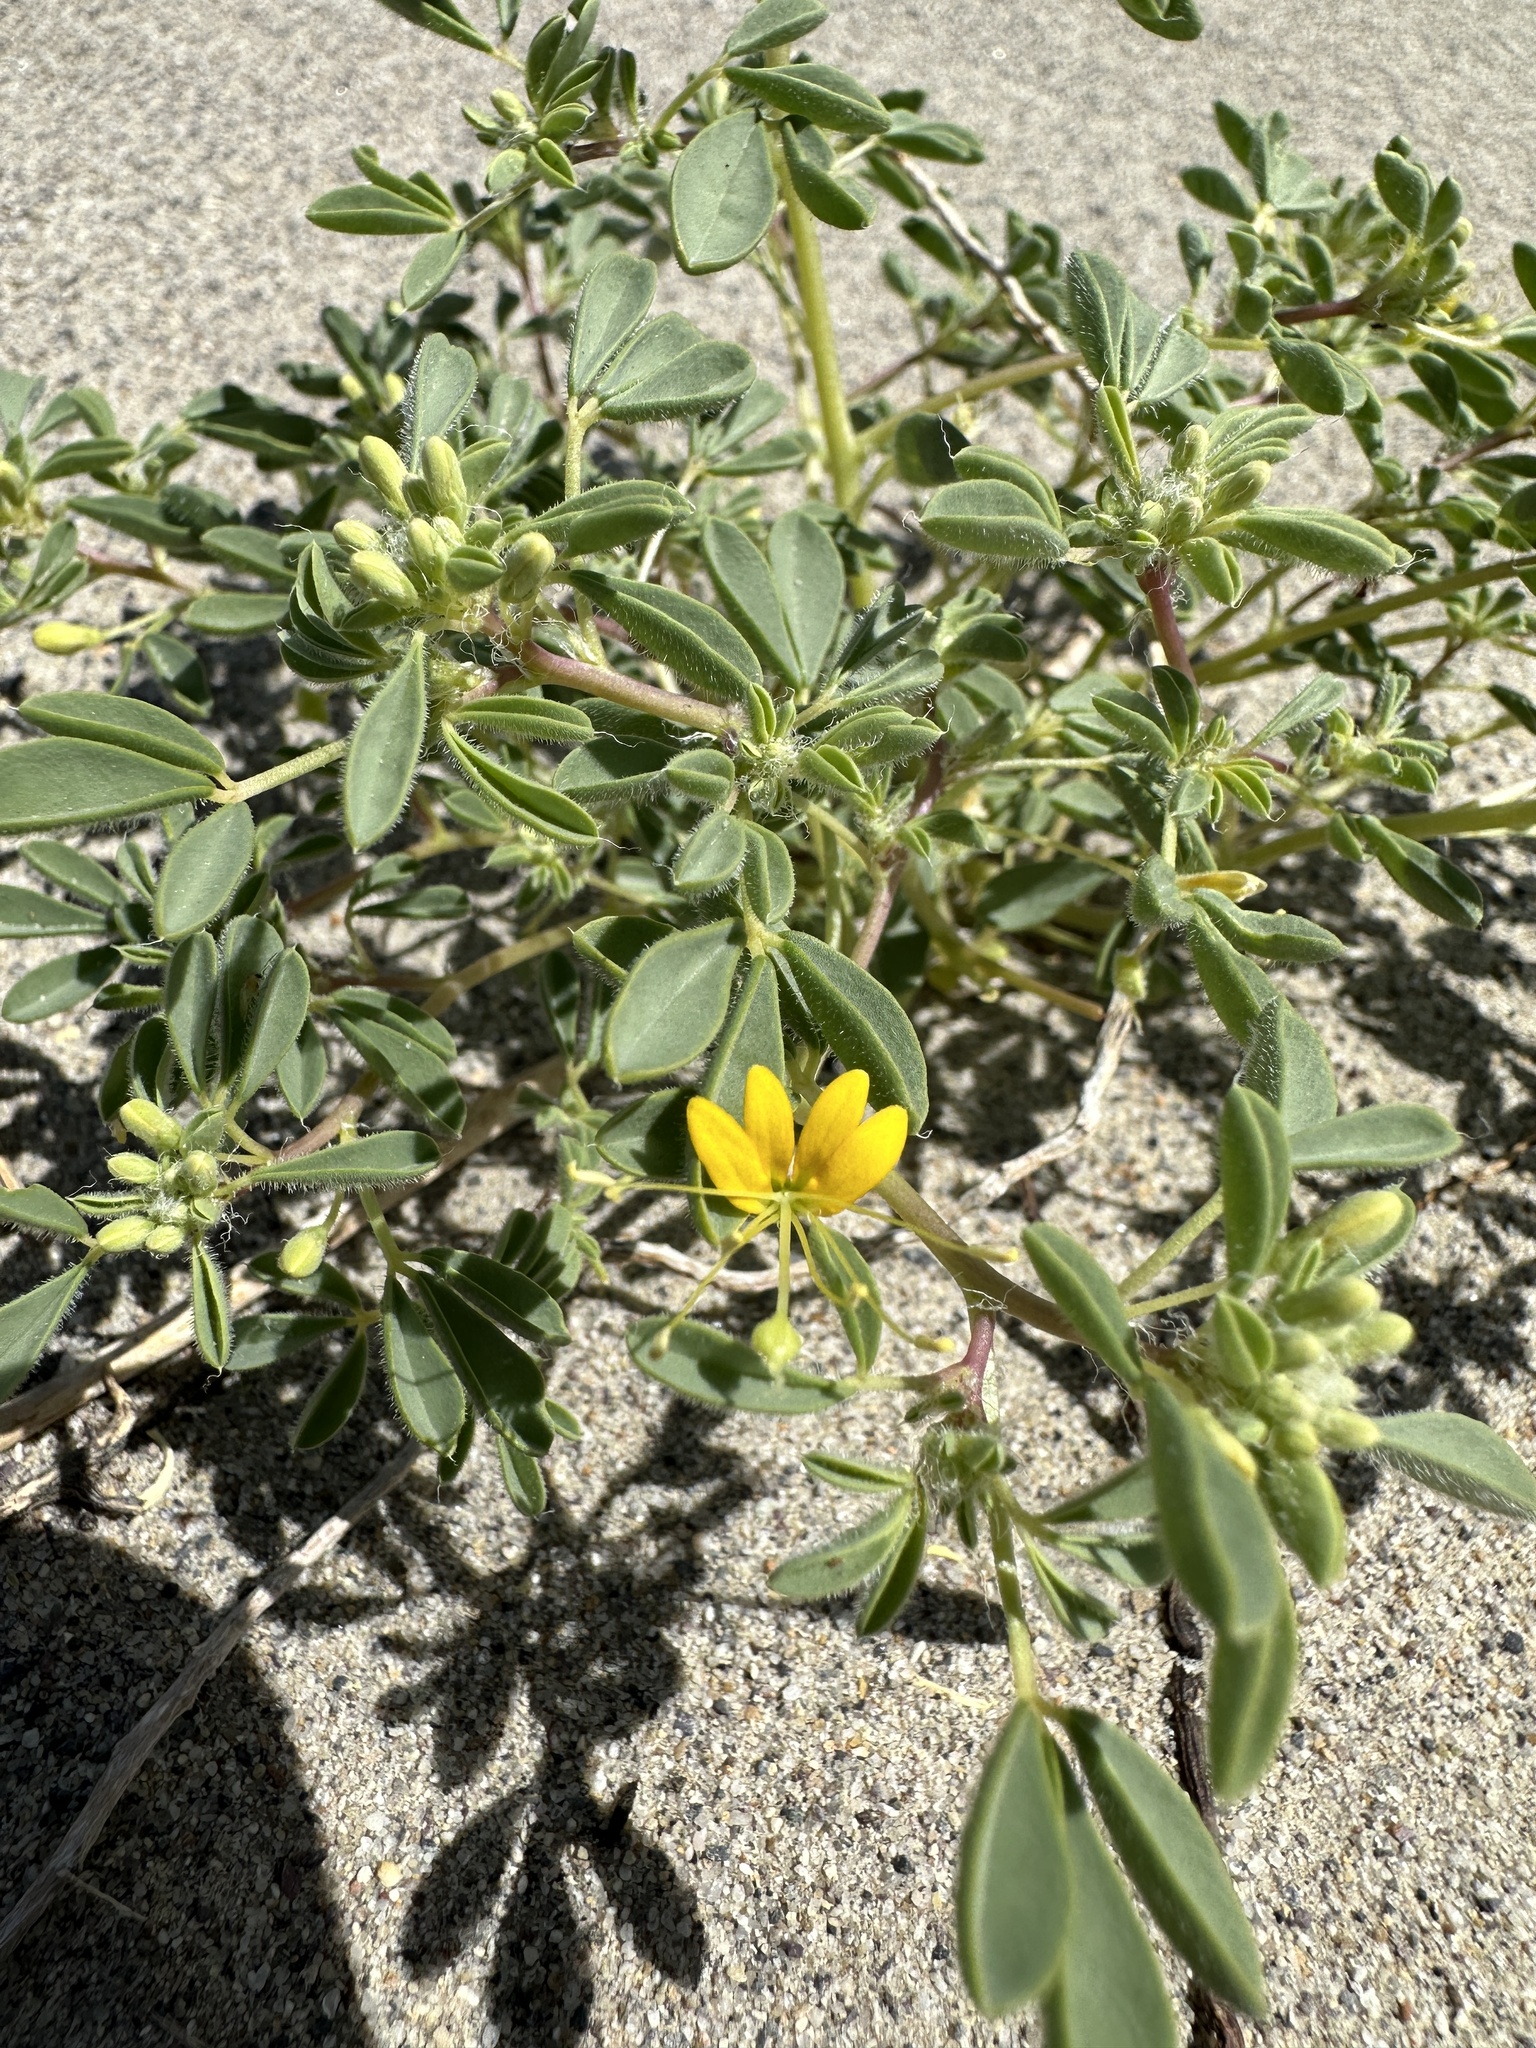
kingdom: Plantae
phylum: Tracheophyta
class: Magnoliopsida
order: Brassicales
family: Cleomaceae
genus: Cleomella
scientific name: Cleomella obtusifolia
